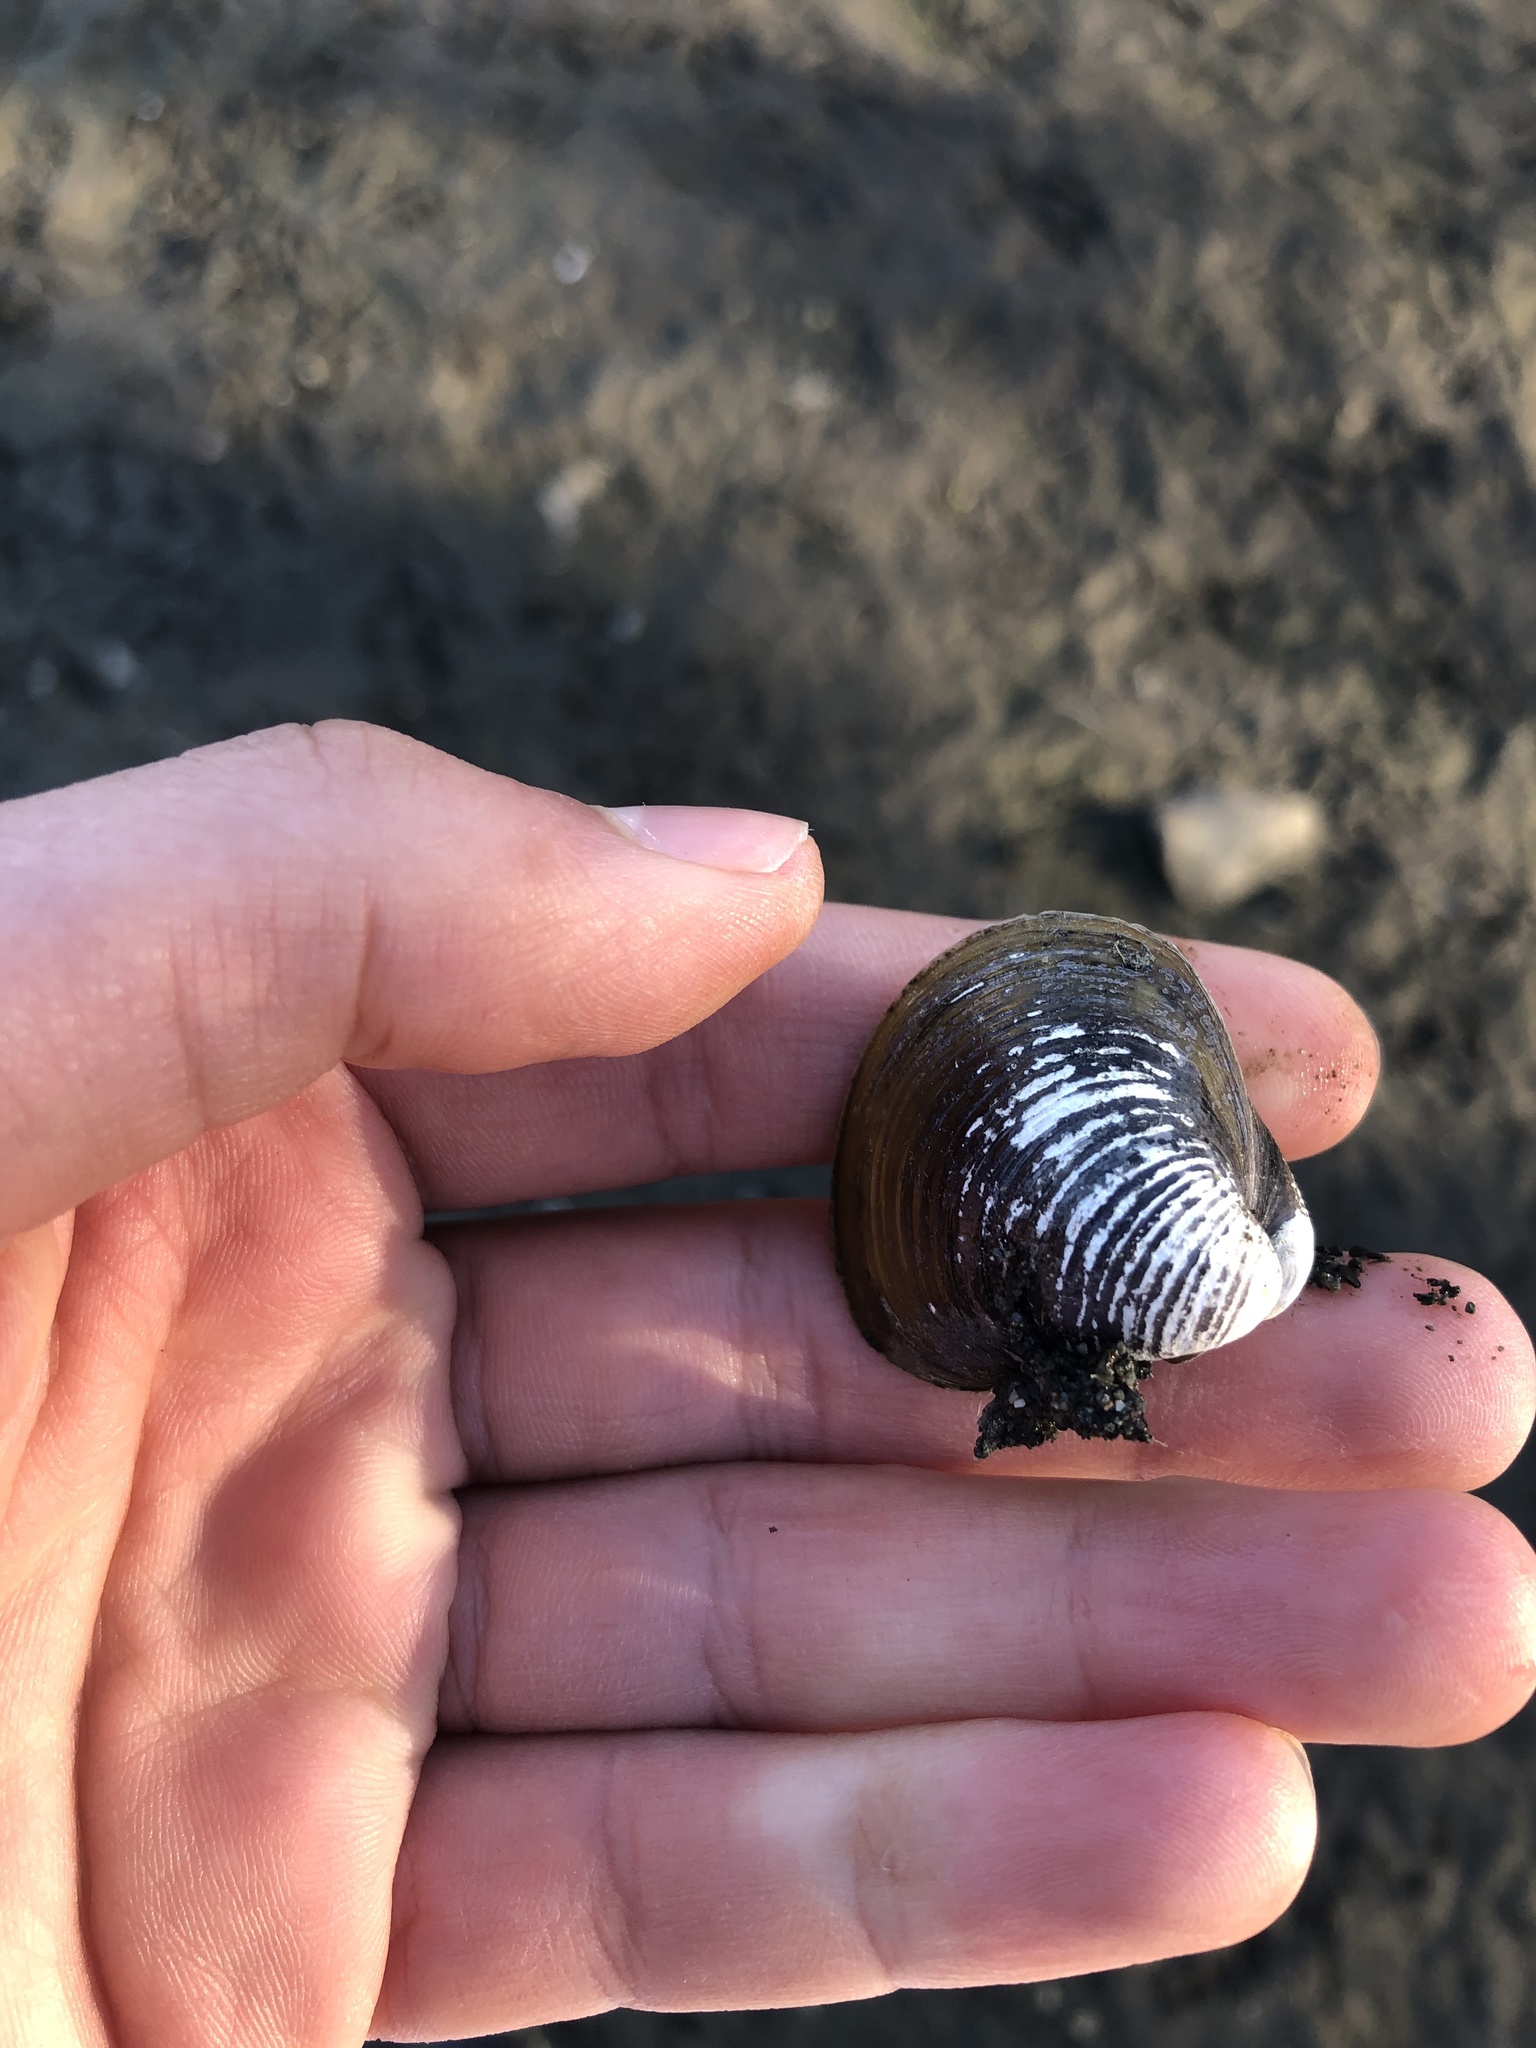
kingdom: Animalia
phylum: Mollusca
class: Bivalvia
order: Venerida
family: Cyrenidae
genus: Corbicula
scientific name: Corbicula fluminea
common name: Asian clam
